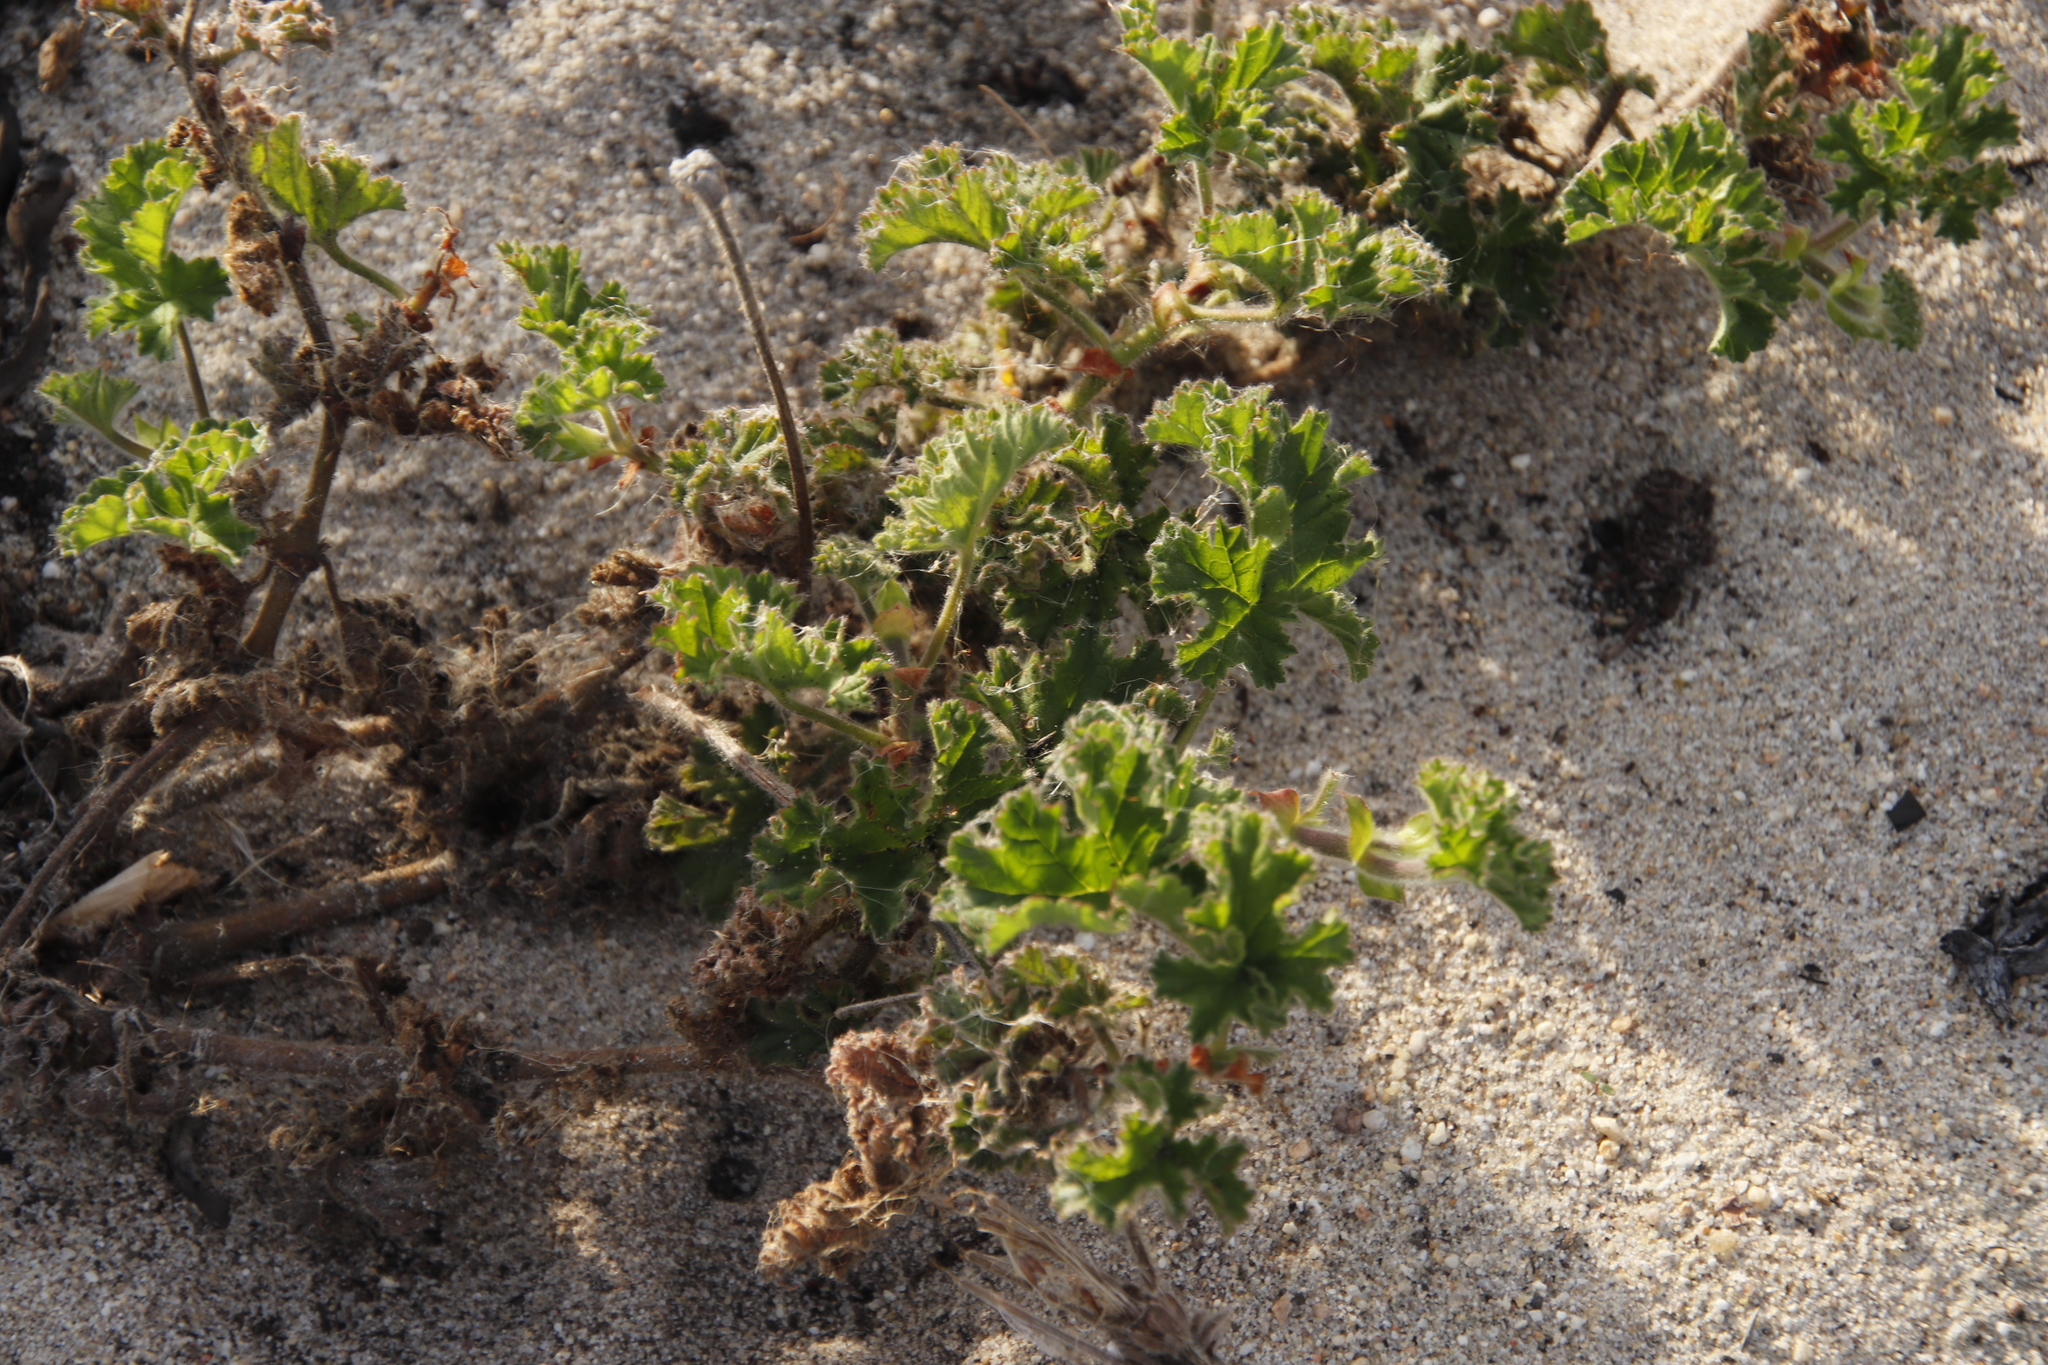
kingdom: Plantae
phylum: Tracheophyta
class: Magnoliopsida
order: Geraniales
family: Geraniaceae
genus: Pelargonium
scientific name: Pelargonium capitatum
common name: Rose scented geranium
